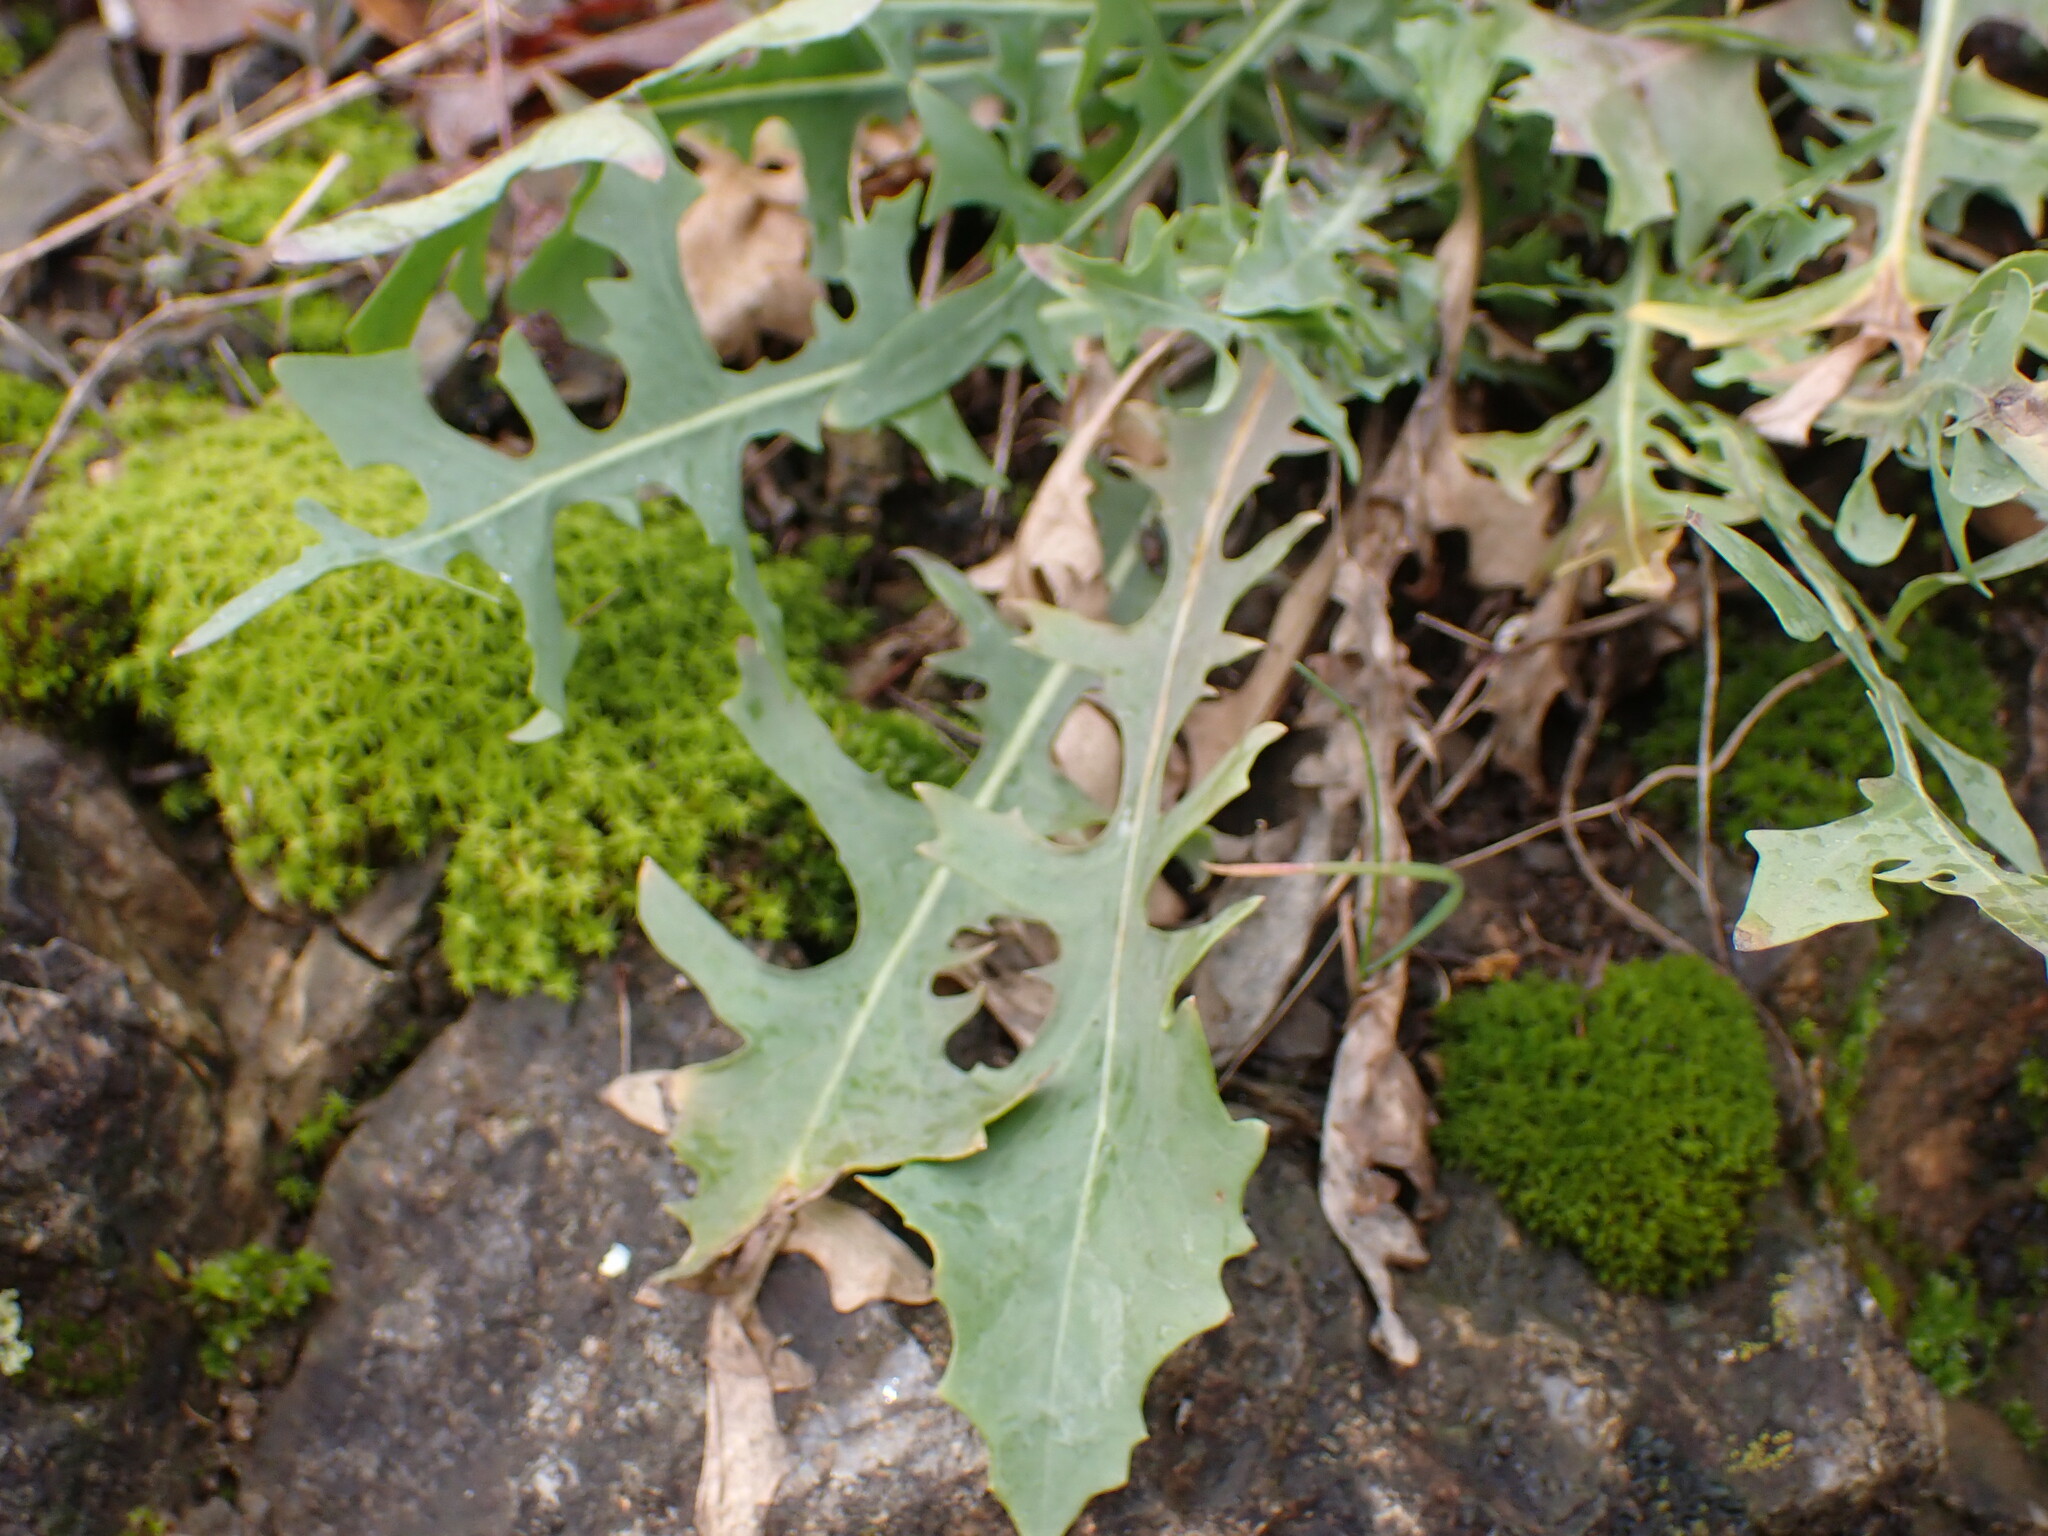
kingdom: Plantae
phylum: Tracheophyta
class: Magnoliopsida
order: Asterales
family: Asteraceae
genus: Lactuca
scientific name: Lactuca perennis
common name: Mountain lettuce
